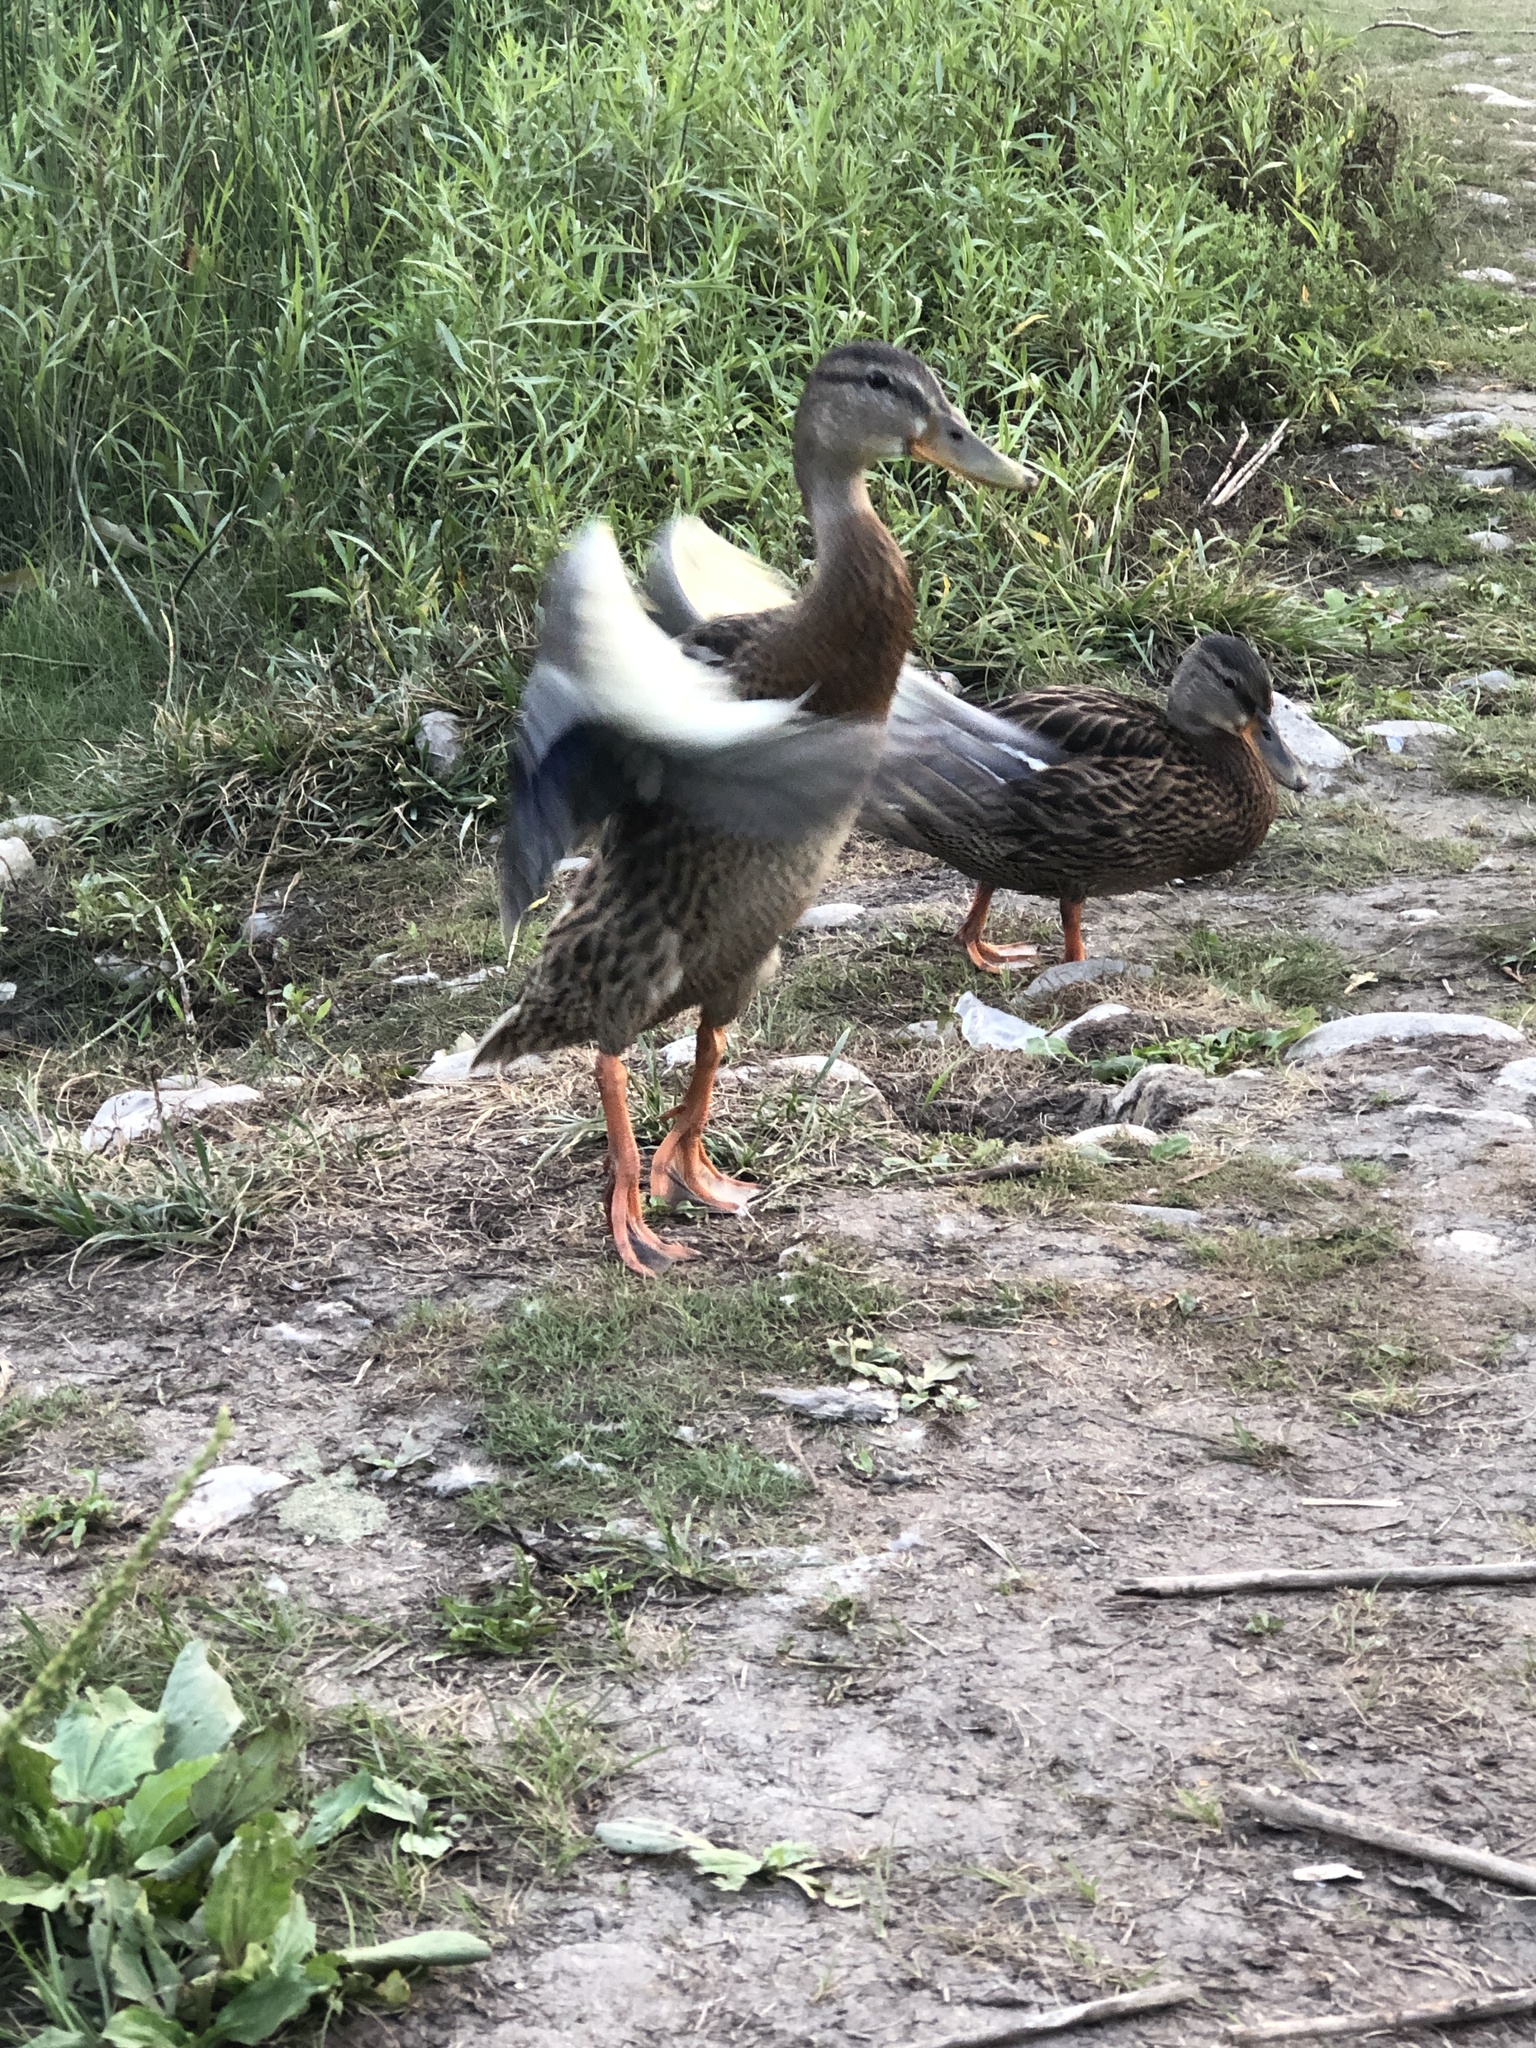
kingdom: Animalia
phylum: Chordata
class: Aves
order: Anseriformes
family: Anatidae
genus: Anas
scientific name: Anas platyrhynchos
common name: Mallard
